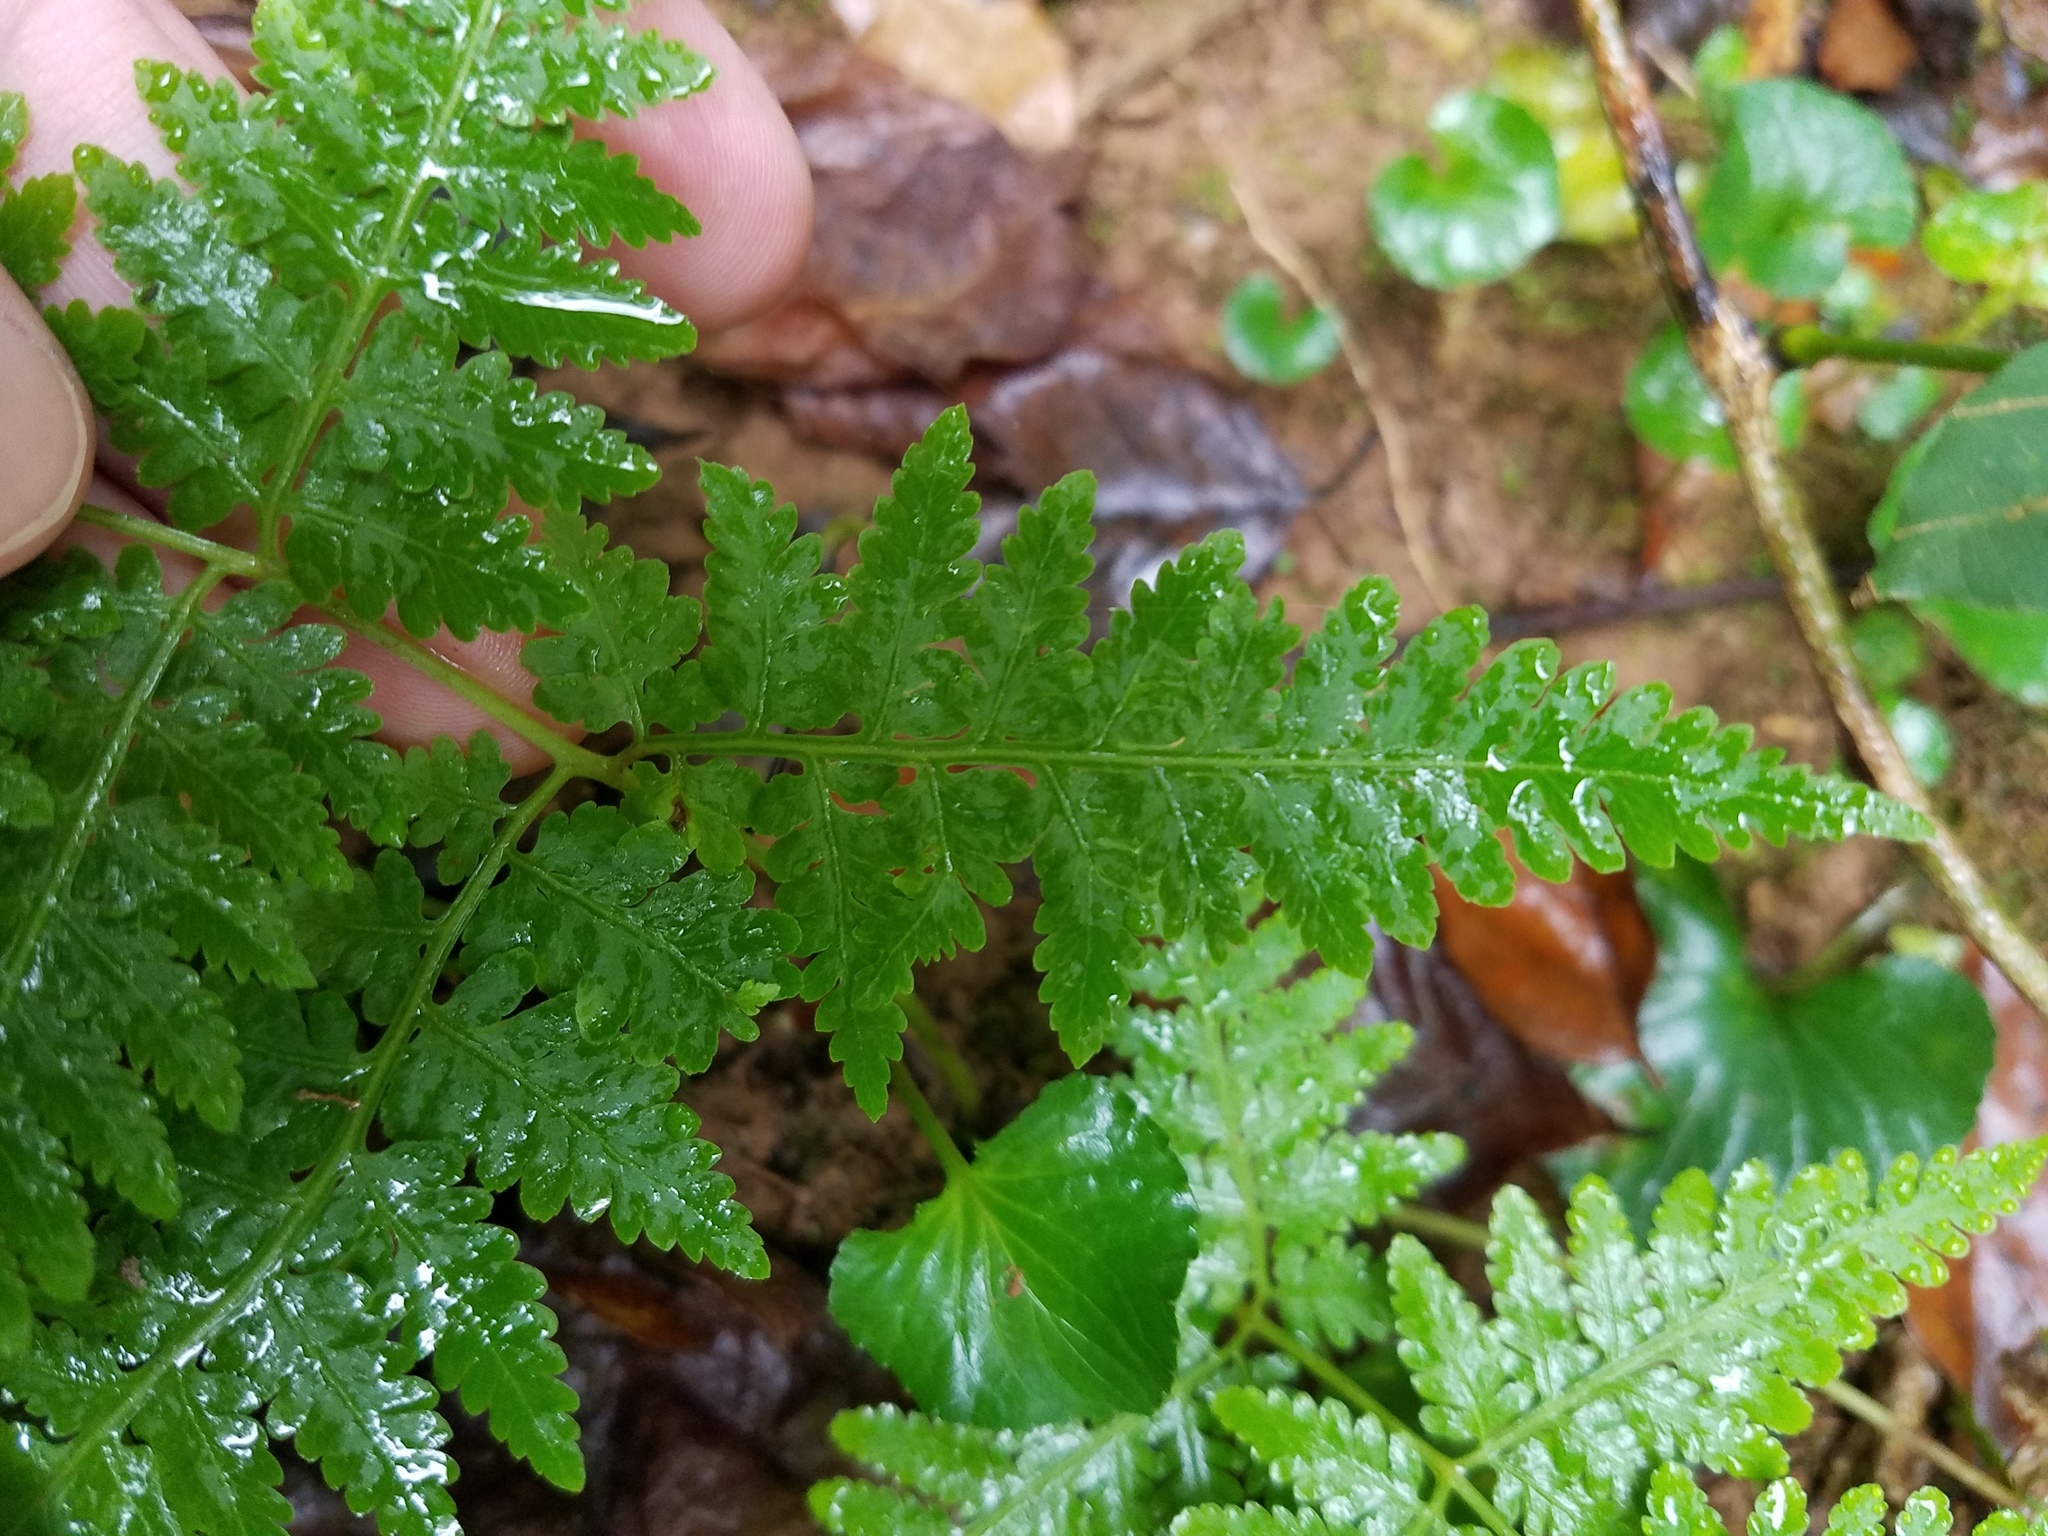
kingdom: Plantae
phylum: Tracheophyta
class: Polypodiopsida
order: Polypodiales
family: Thelypteridaceae
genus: Macrothelypteris
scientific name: Macrothelypteris torresiana
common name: Swordfern
